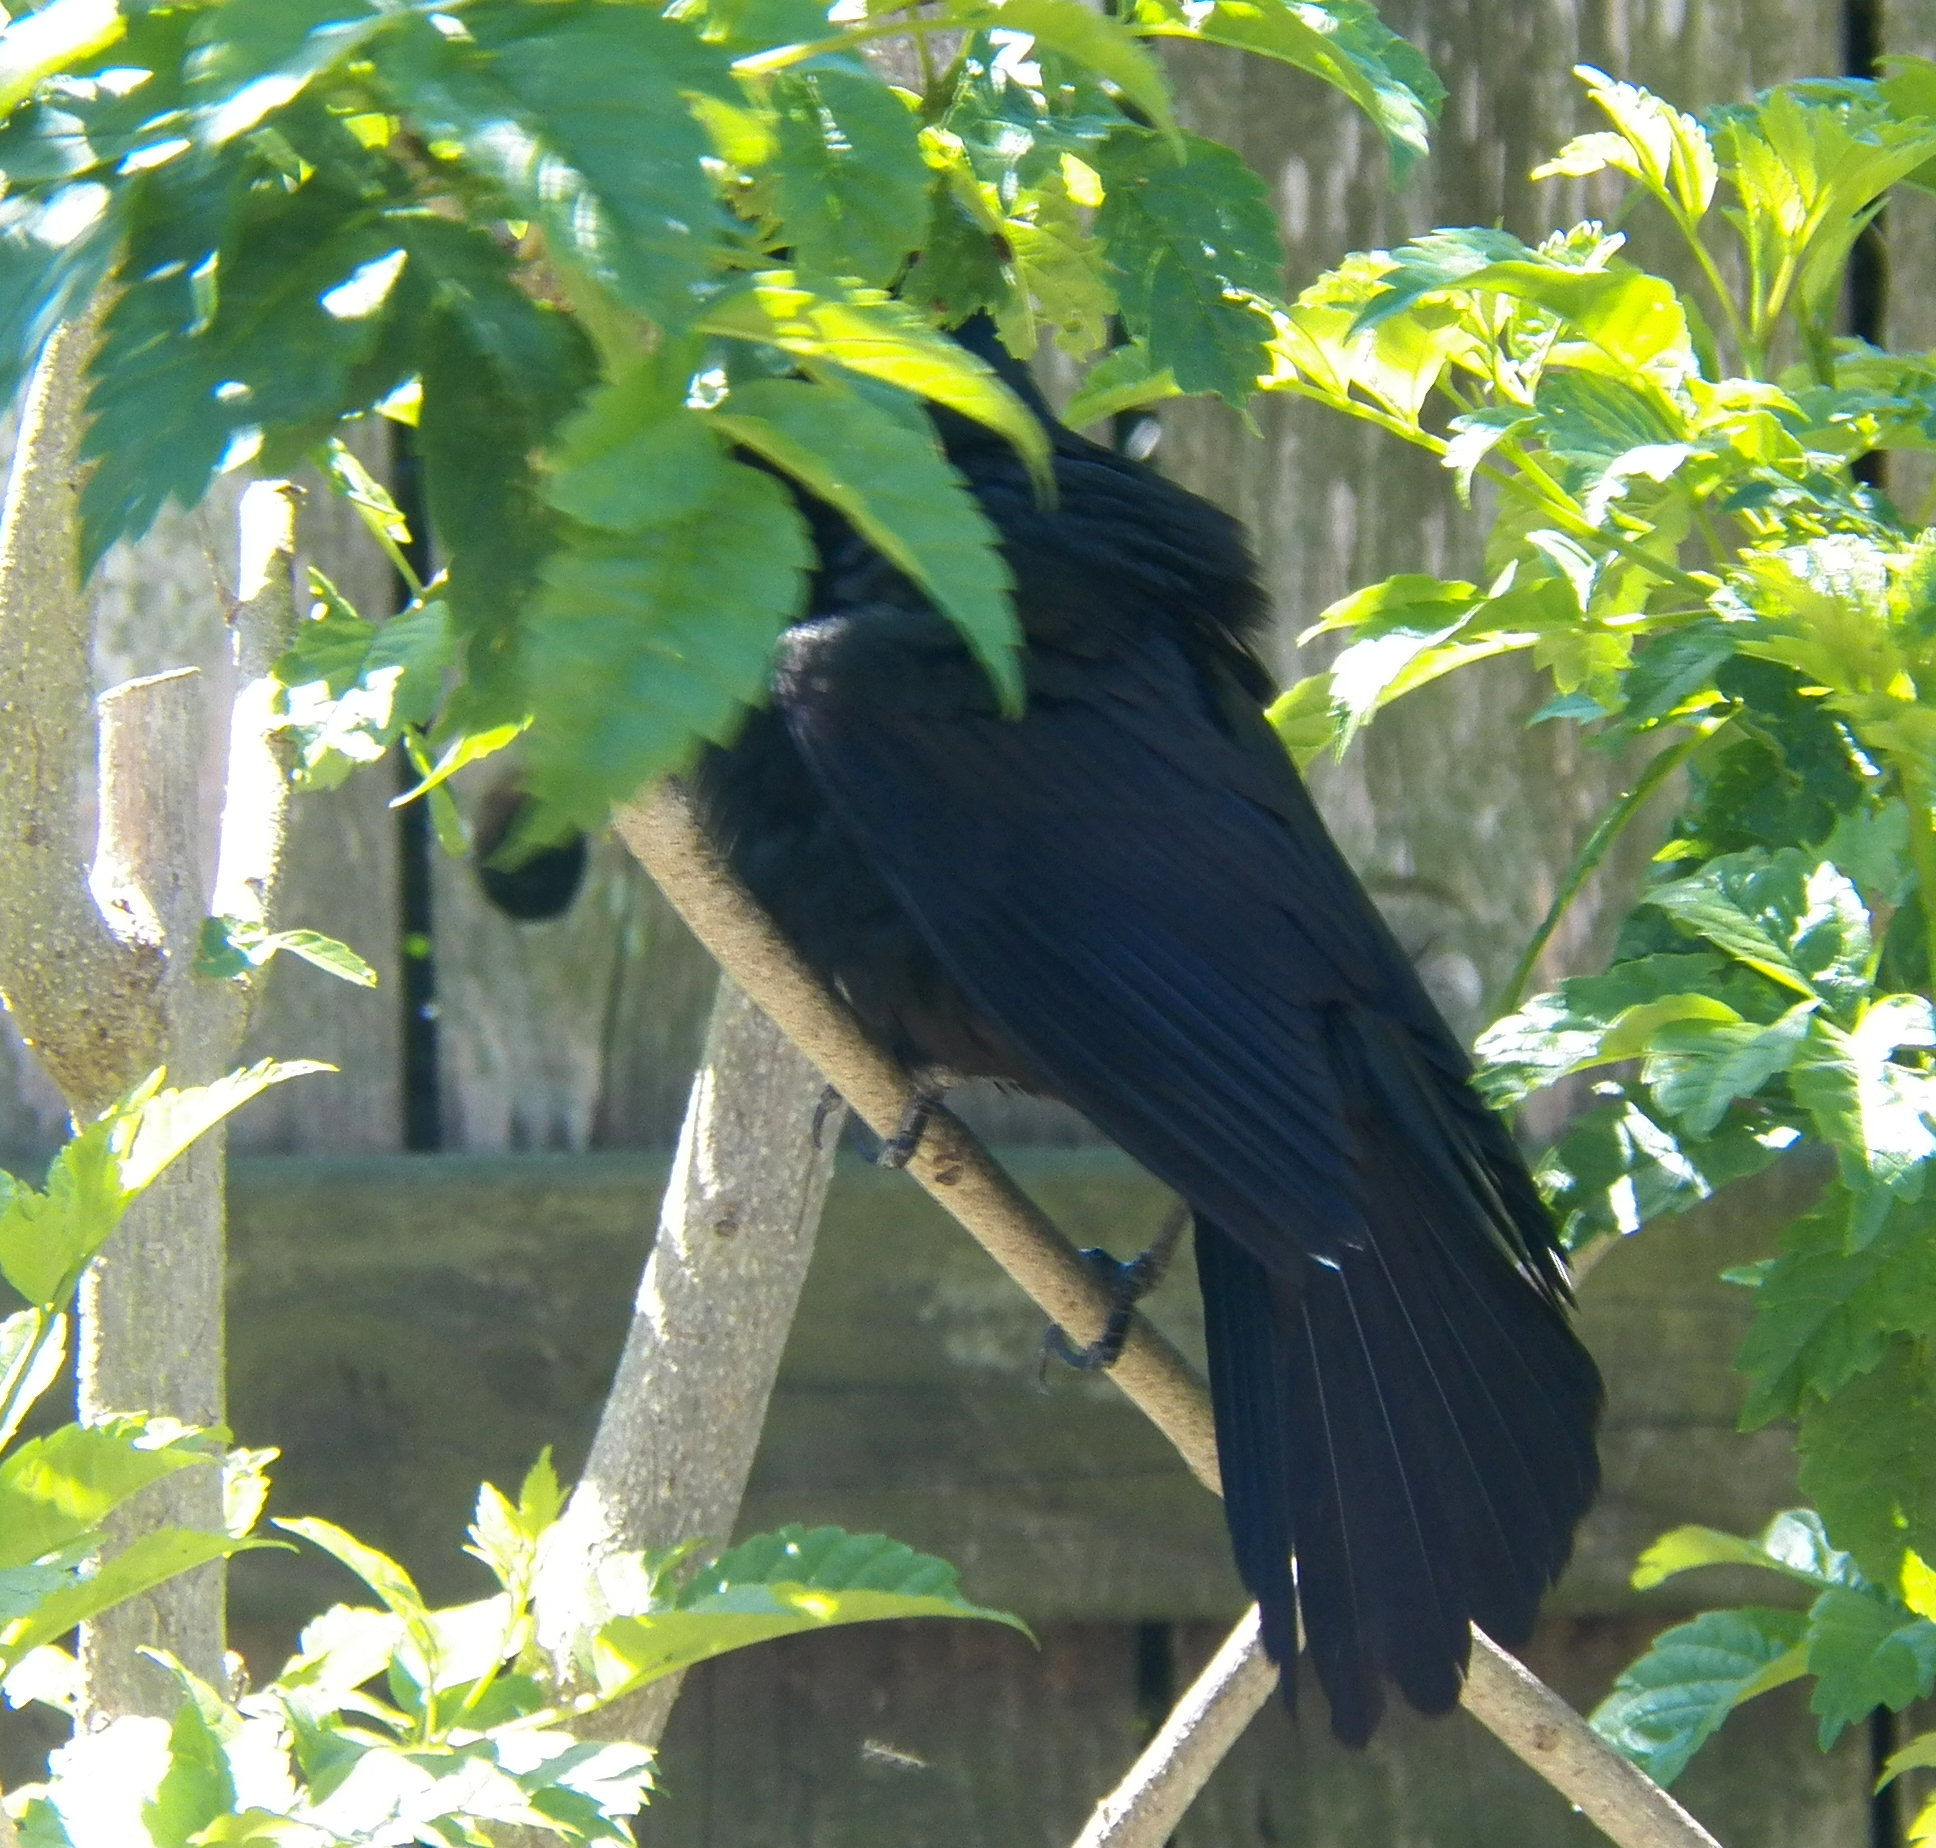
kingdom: Animalia
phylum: Chordata
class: Aves
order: Passeriformes
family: Icteridae
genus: Quiscalus
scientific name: Quiscalus mexicanus
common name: Great-tailed grackle
